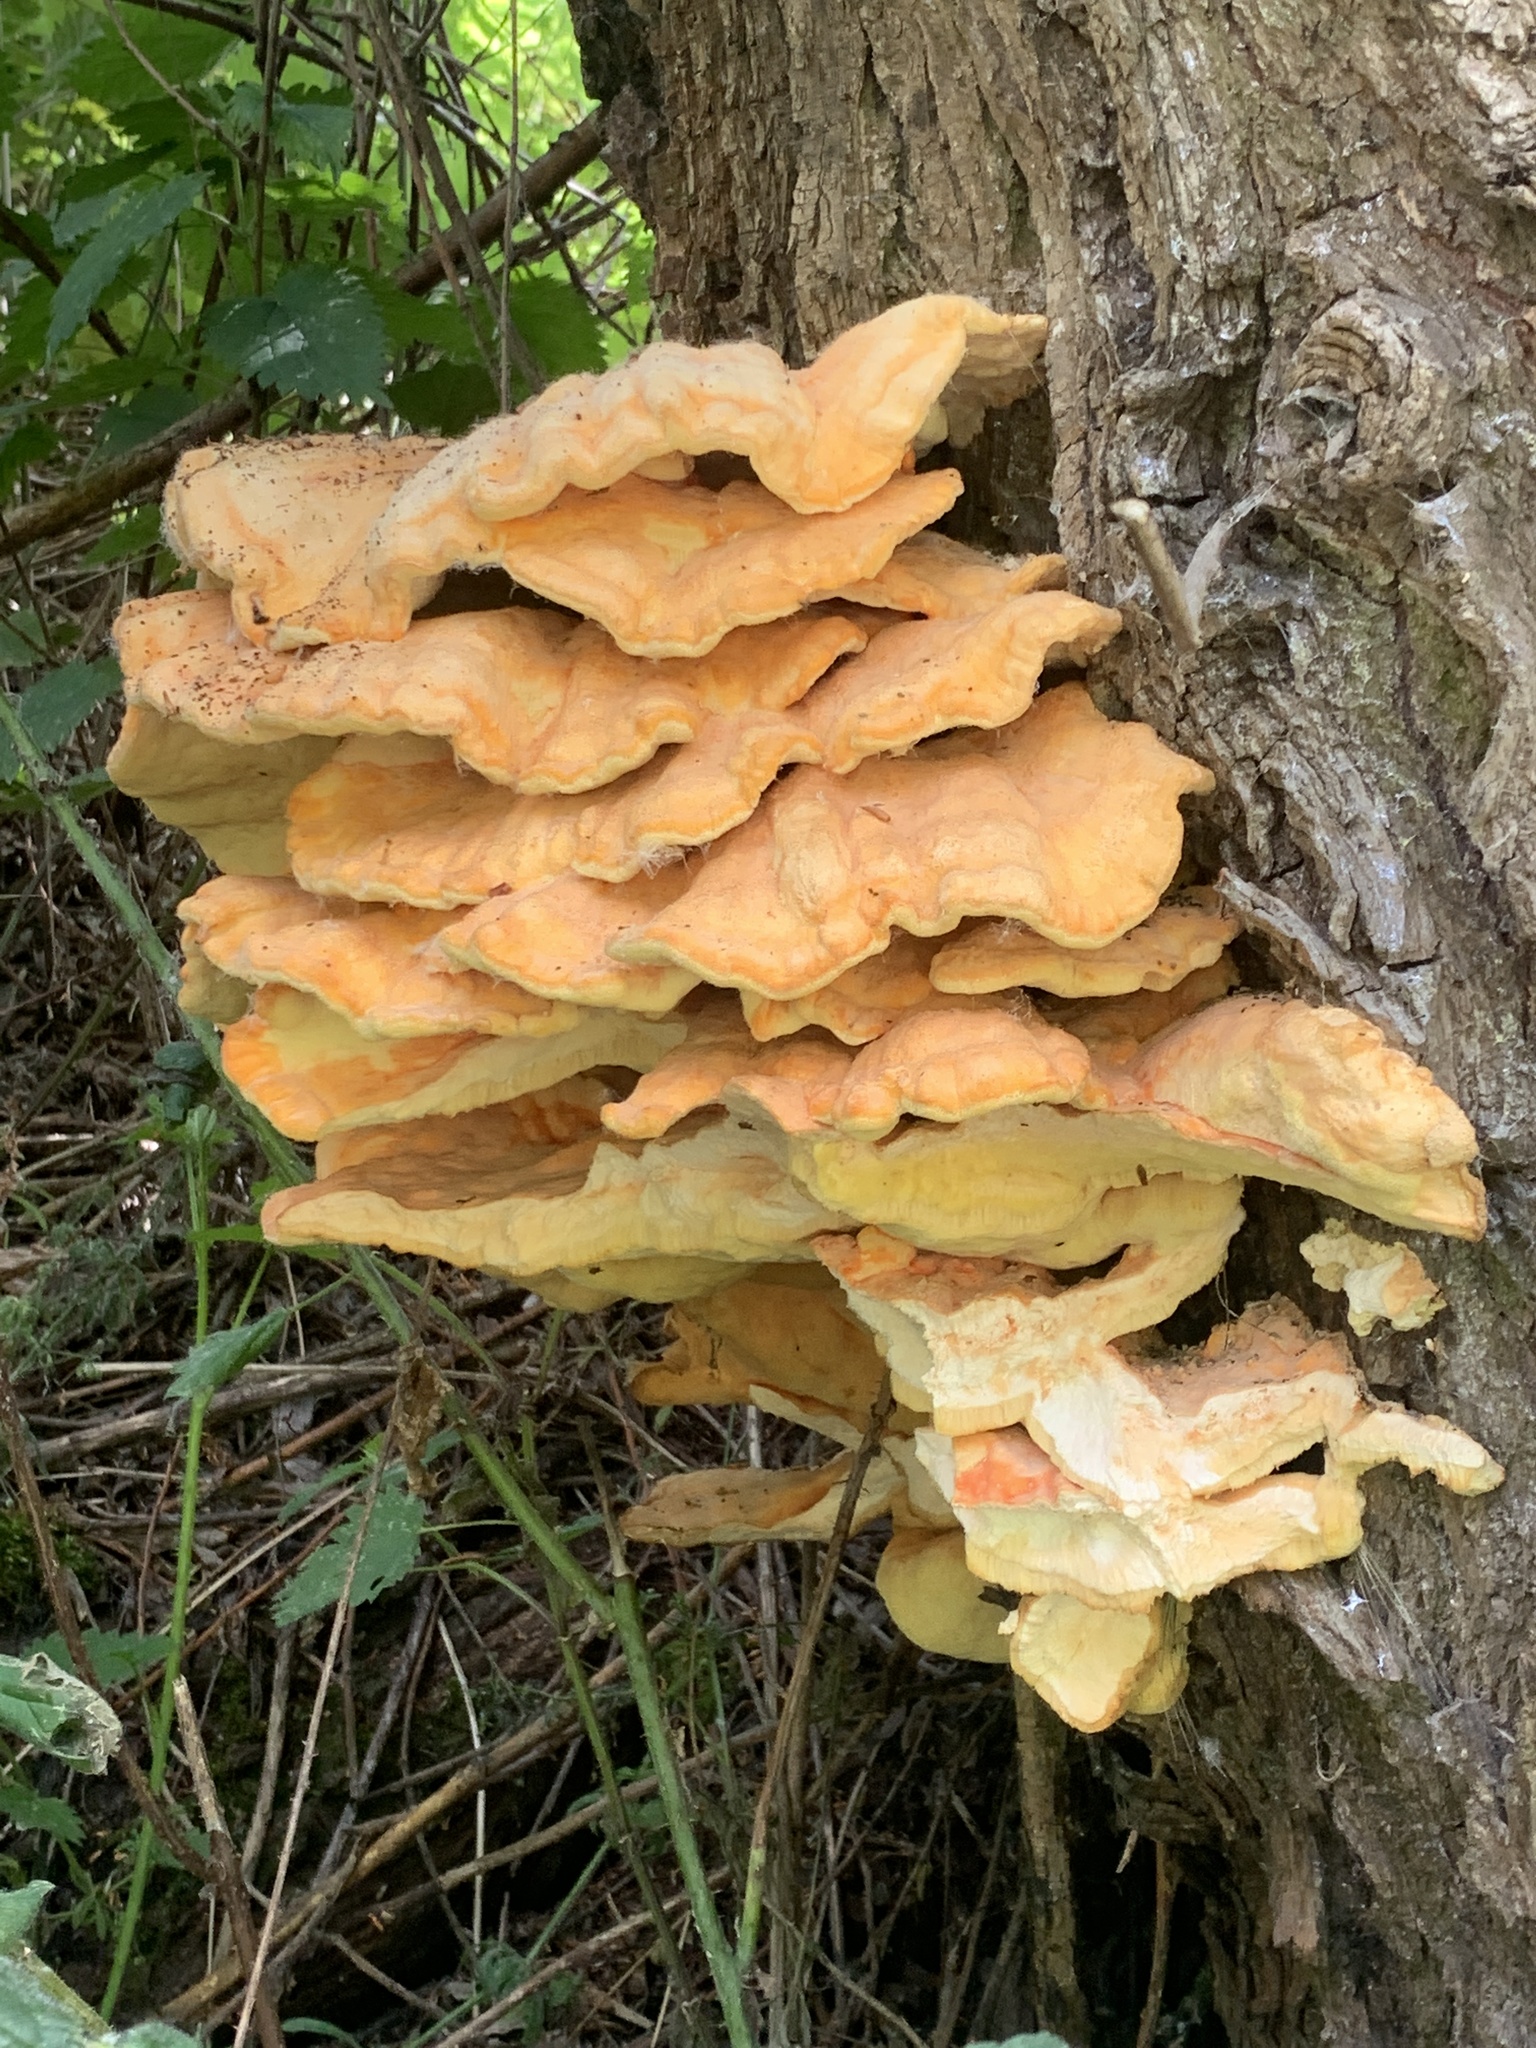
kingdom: Fungi
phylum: Basidiomycota
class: Agaricomycetes
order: Polyporales
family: Laetiporaceae
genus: Laetiporus
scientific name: Laetiporus sulphureus
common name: Chicken of the woods
